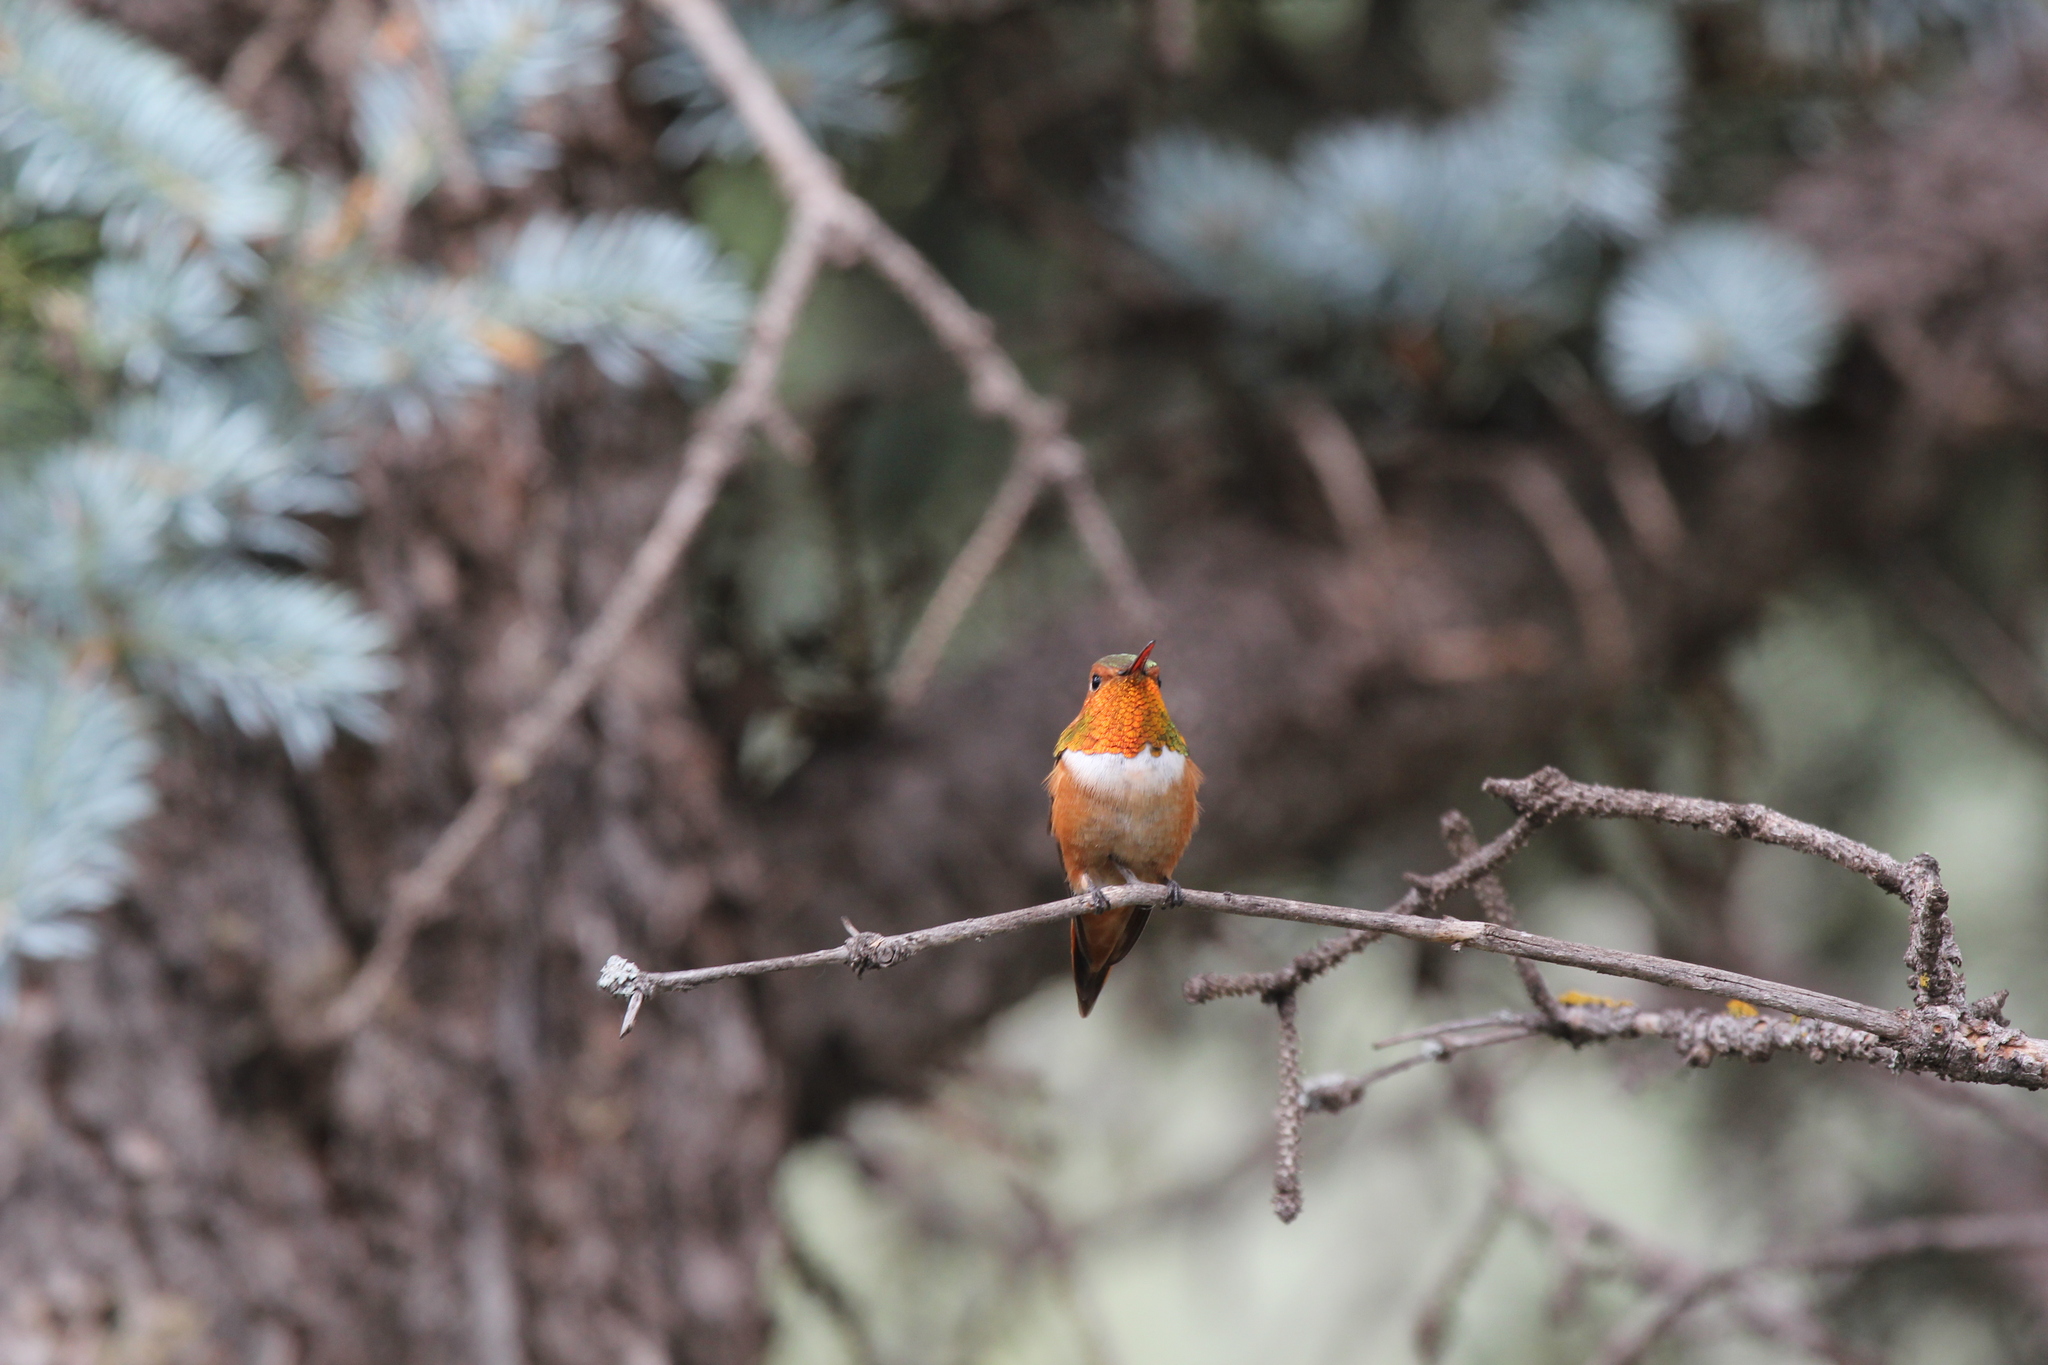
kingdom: Animalia
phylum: Chordata
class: Aves
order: Apodiformes
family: Trochilidae
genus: Selasphorus
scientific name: Selasphorus rufus
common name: Rufous hummingbird
